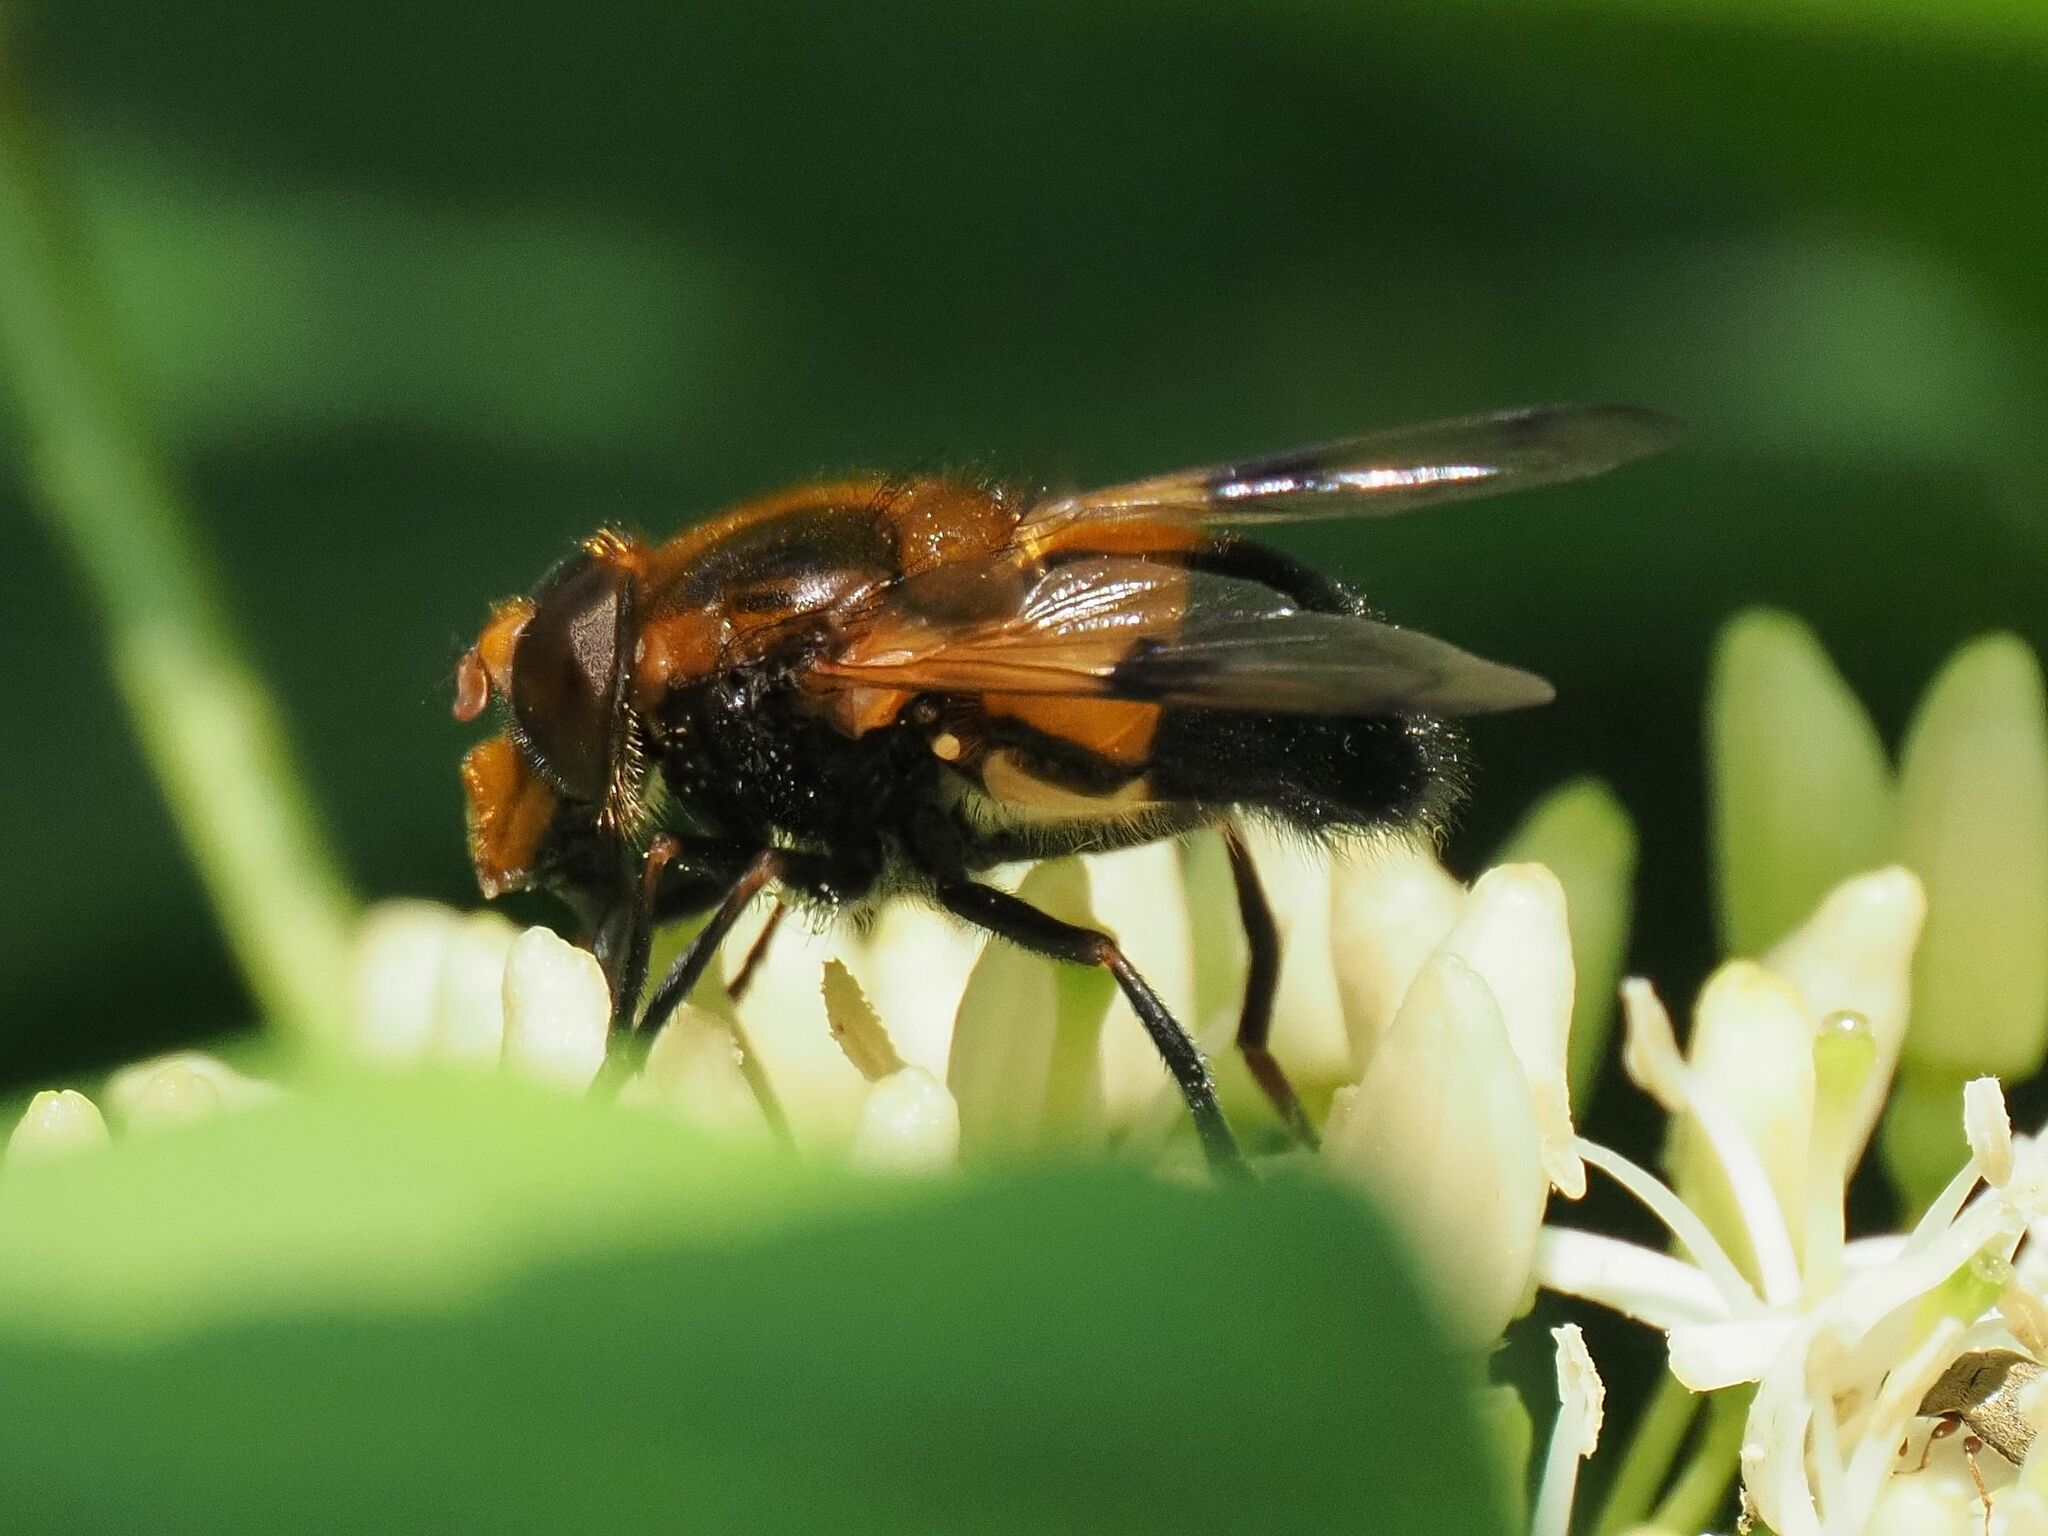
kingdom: Animalia
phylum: Arthropoda
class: Insecta
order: Diptera
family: Syrphidae
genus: Volucella
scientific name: Volucella inflata
